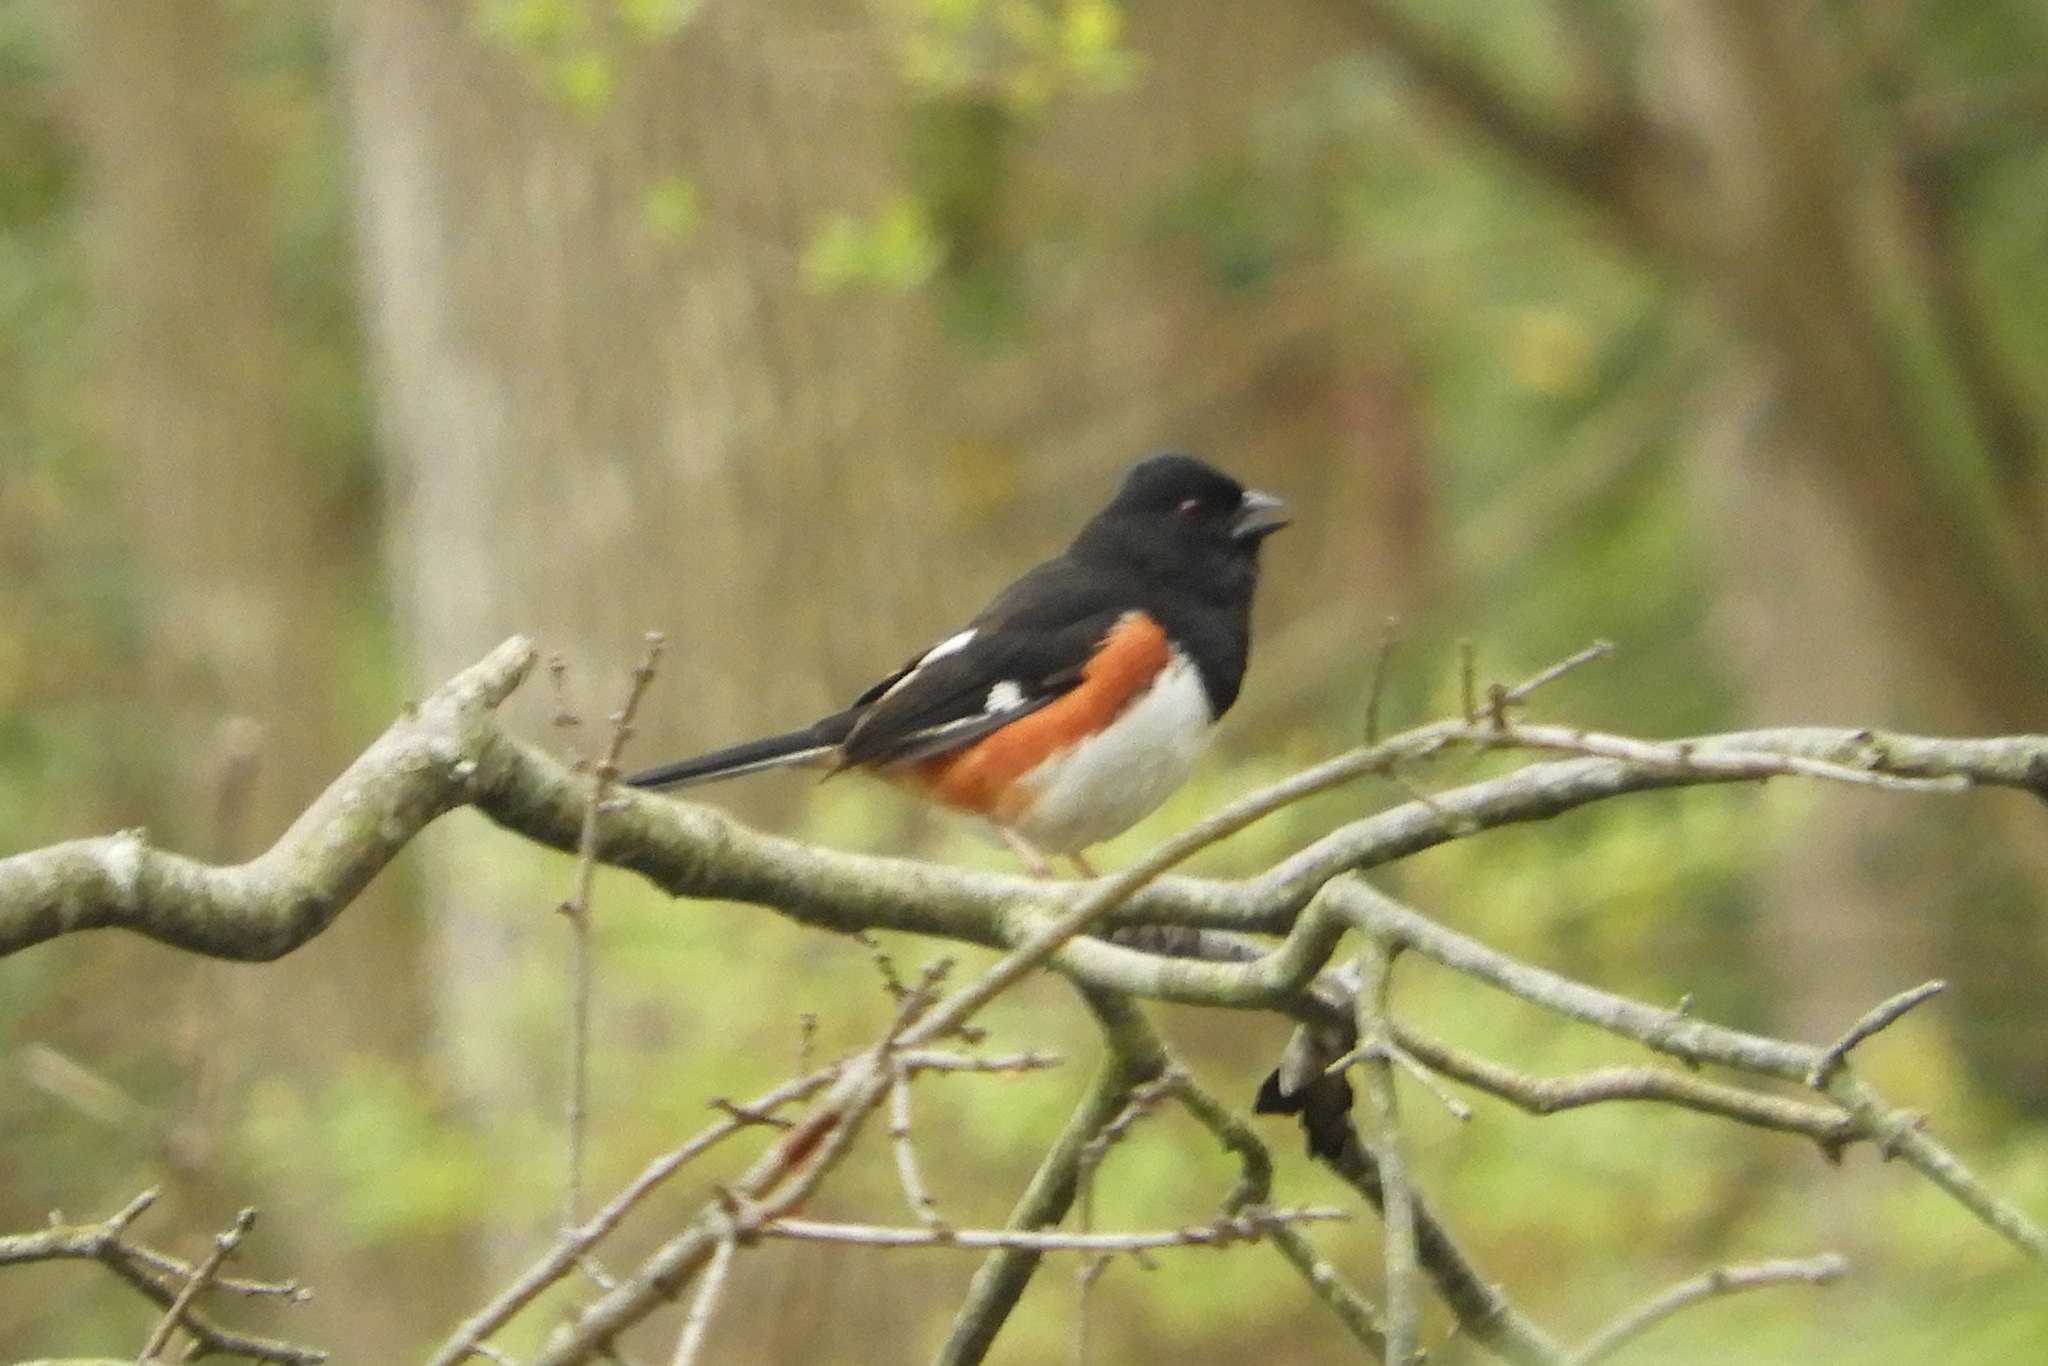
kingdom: Animalia
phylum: Chordata
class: Aves
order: Passeriformes
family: Passerellidae
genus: Pipilo
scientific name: Pipilo erythrophthalmus
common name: Eastern towhee
